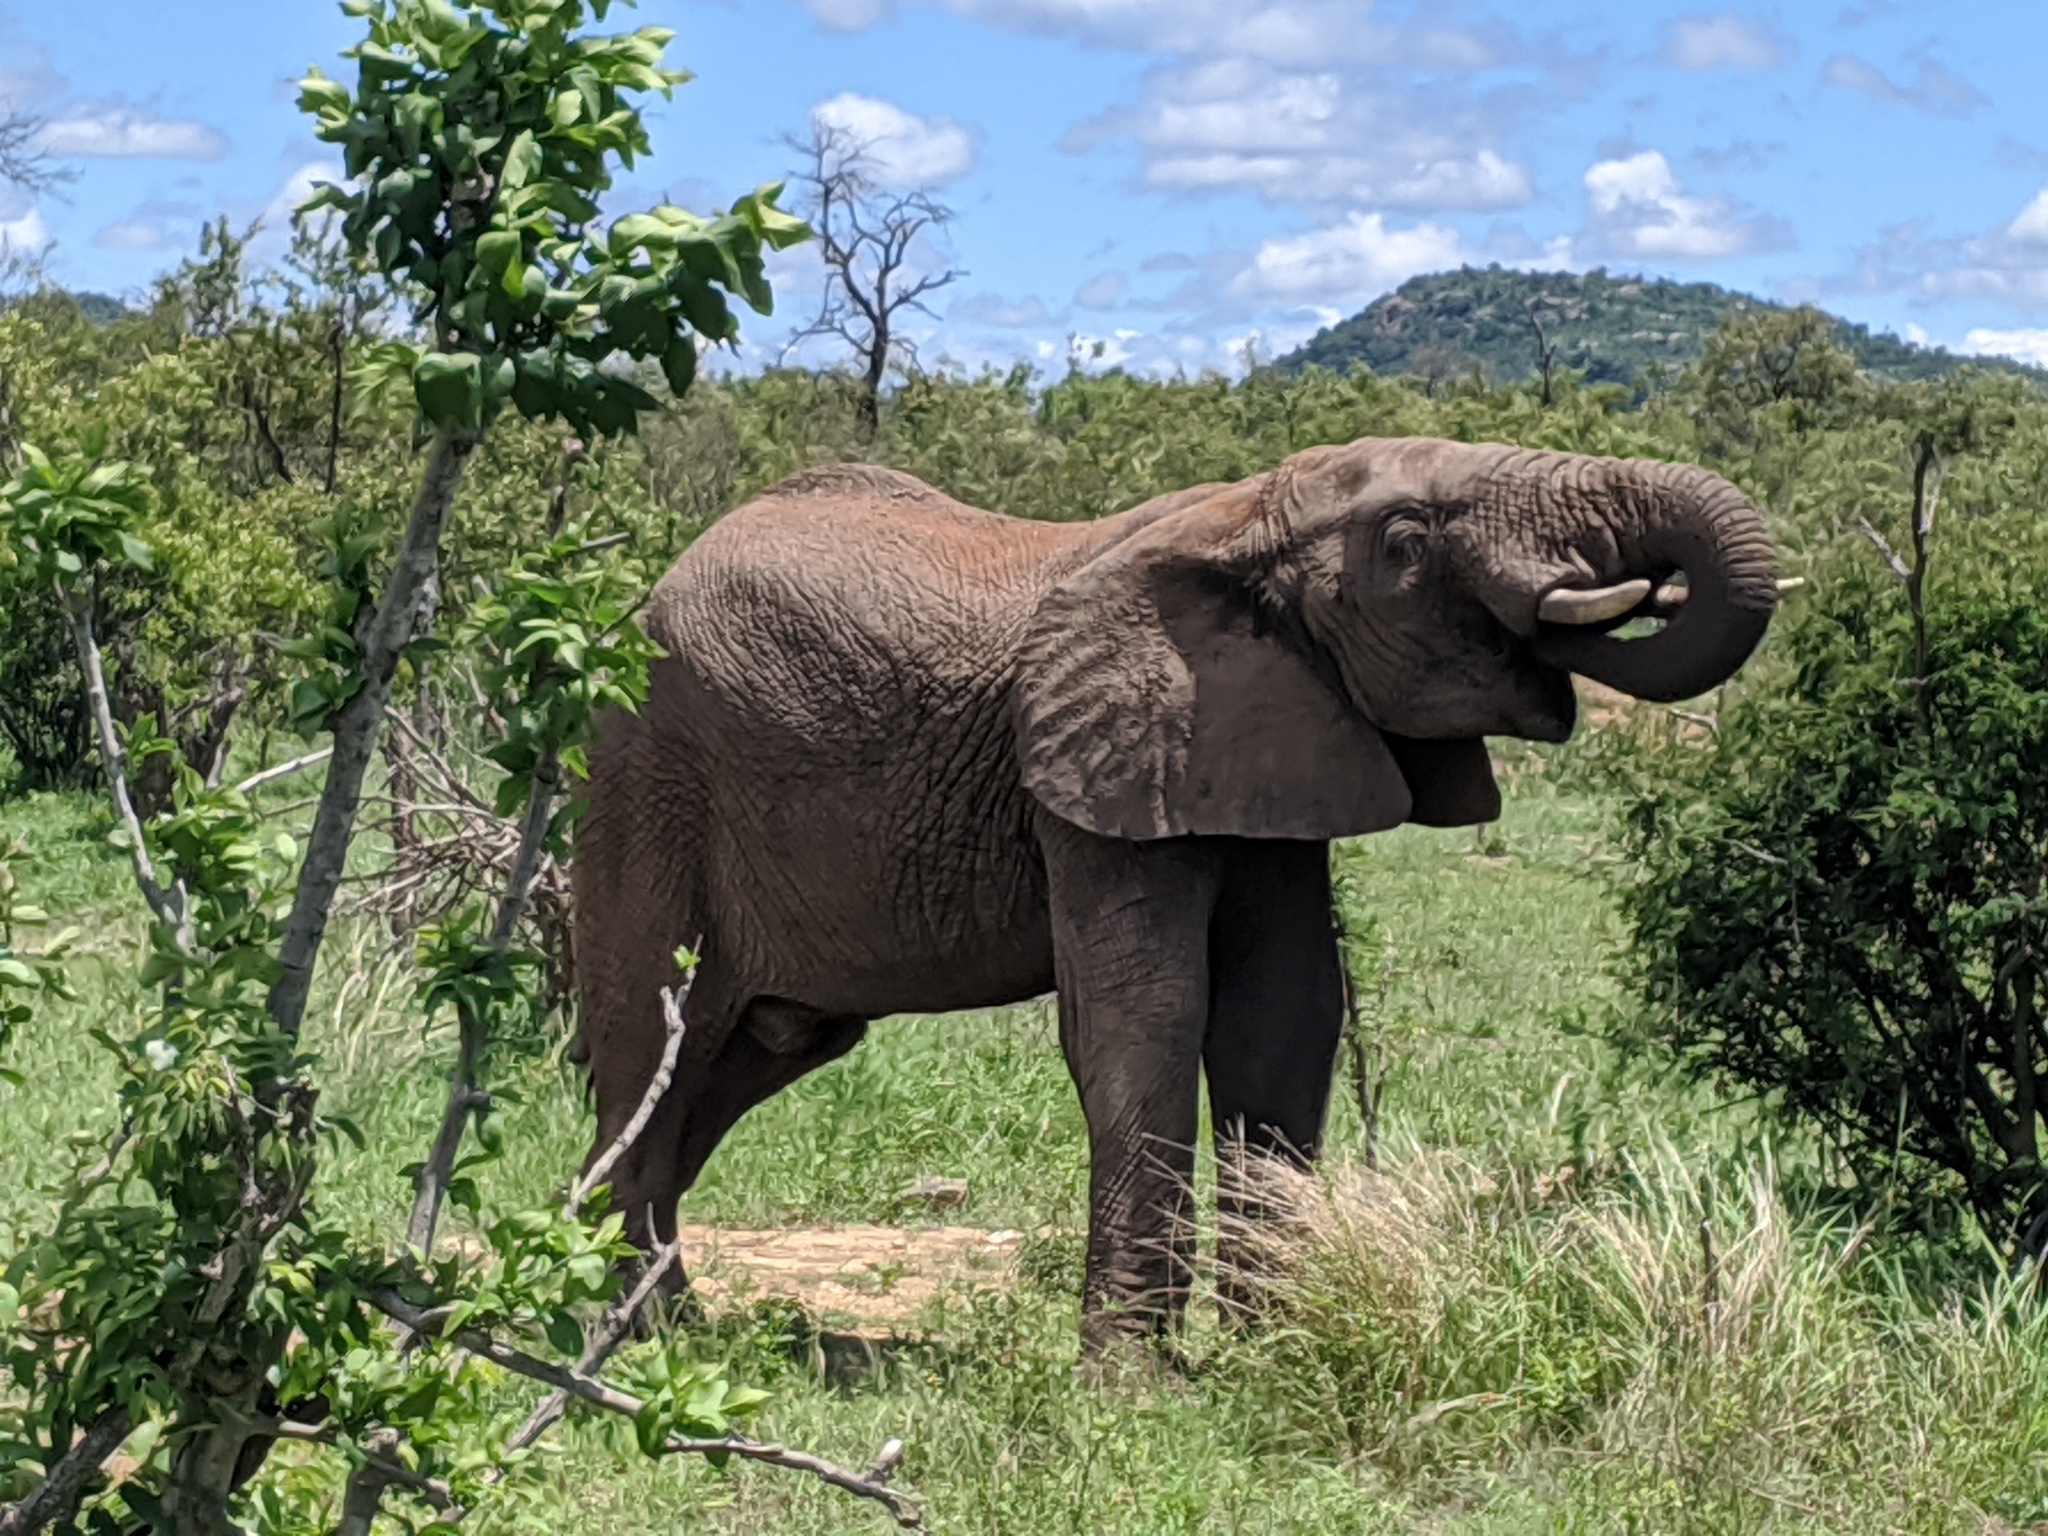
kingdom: Animalia
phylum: Chordata
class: Mammalia
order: Proboscidea
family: Elephantidae
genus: Loxodonta
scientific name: Loxodonta africana
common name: African elephant
